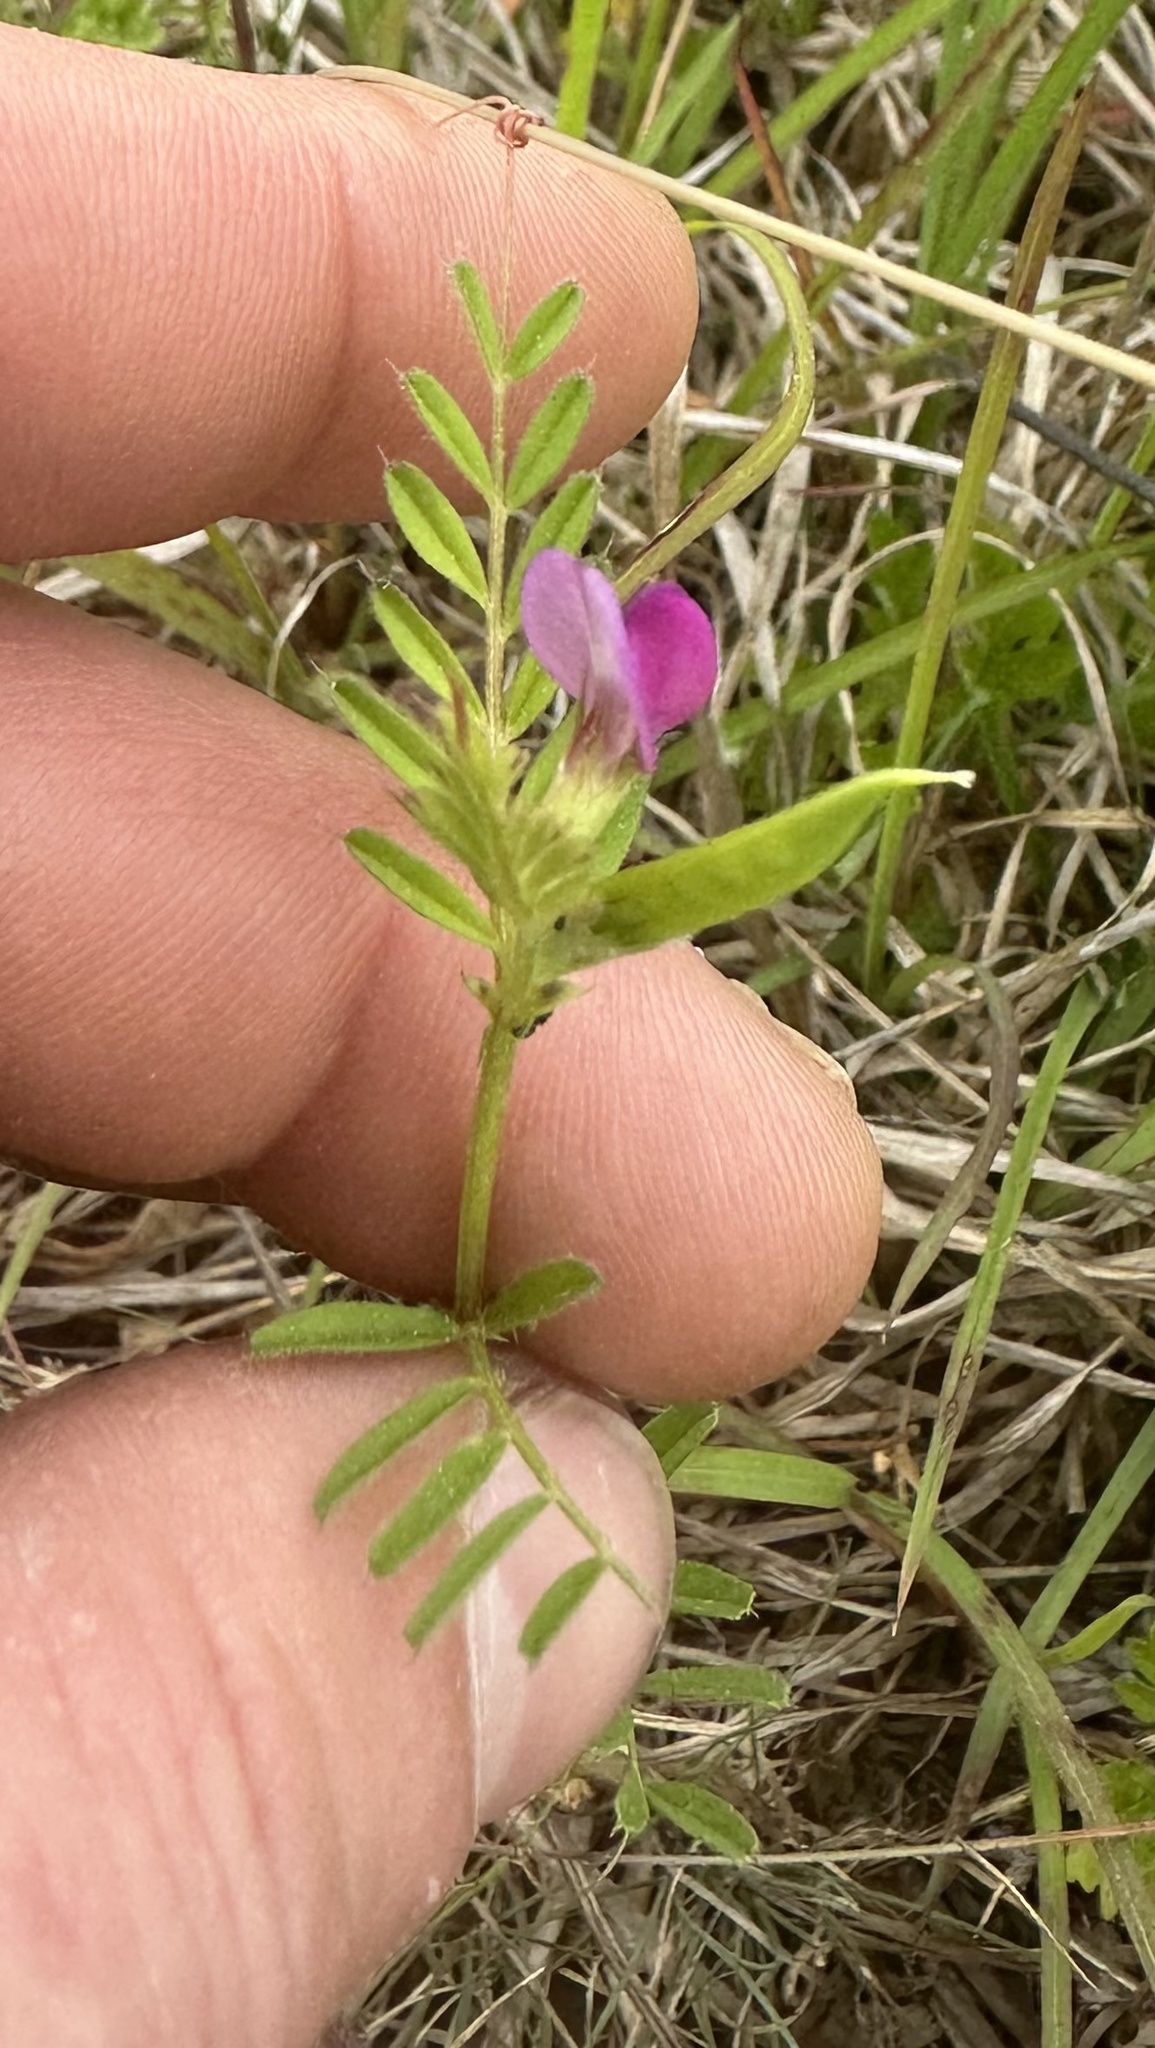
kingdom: Plantae
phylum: Tracheophyta
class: Magnoliopsida
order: Fabales
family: Fabaceae
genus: Vicia
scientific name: Vicia sativa
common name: Garden vetch
